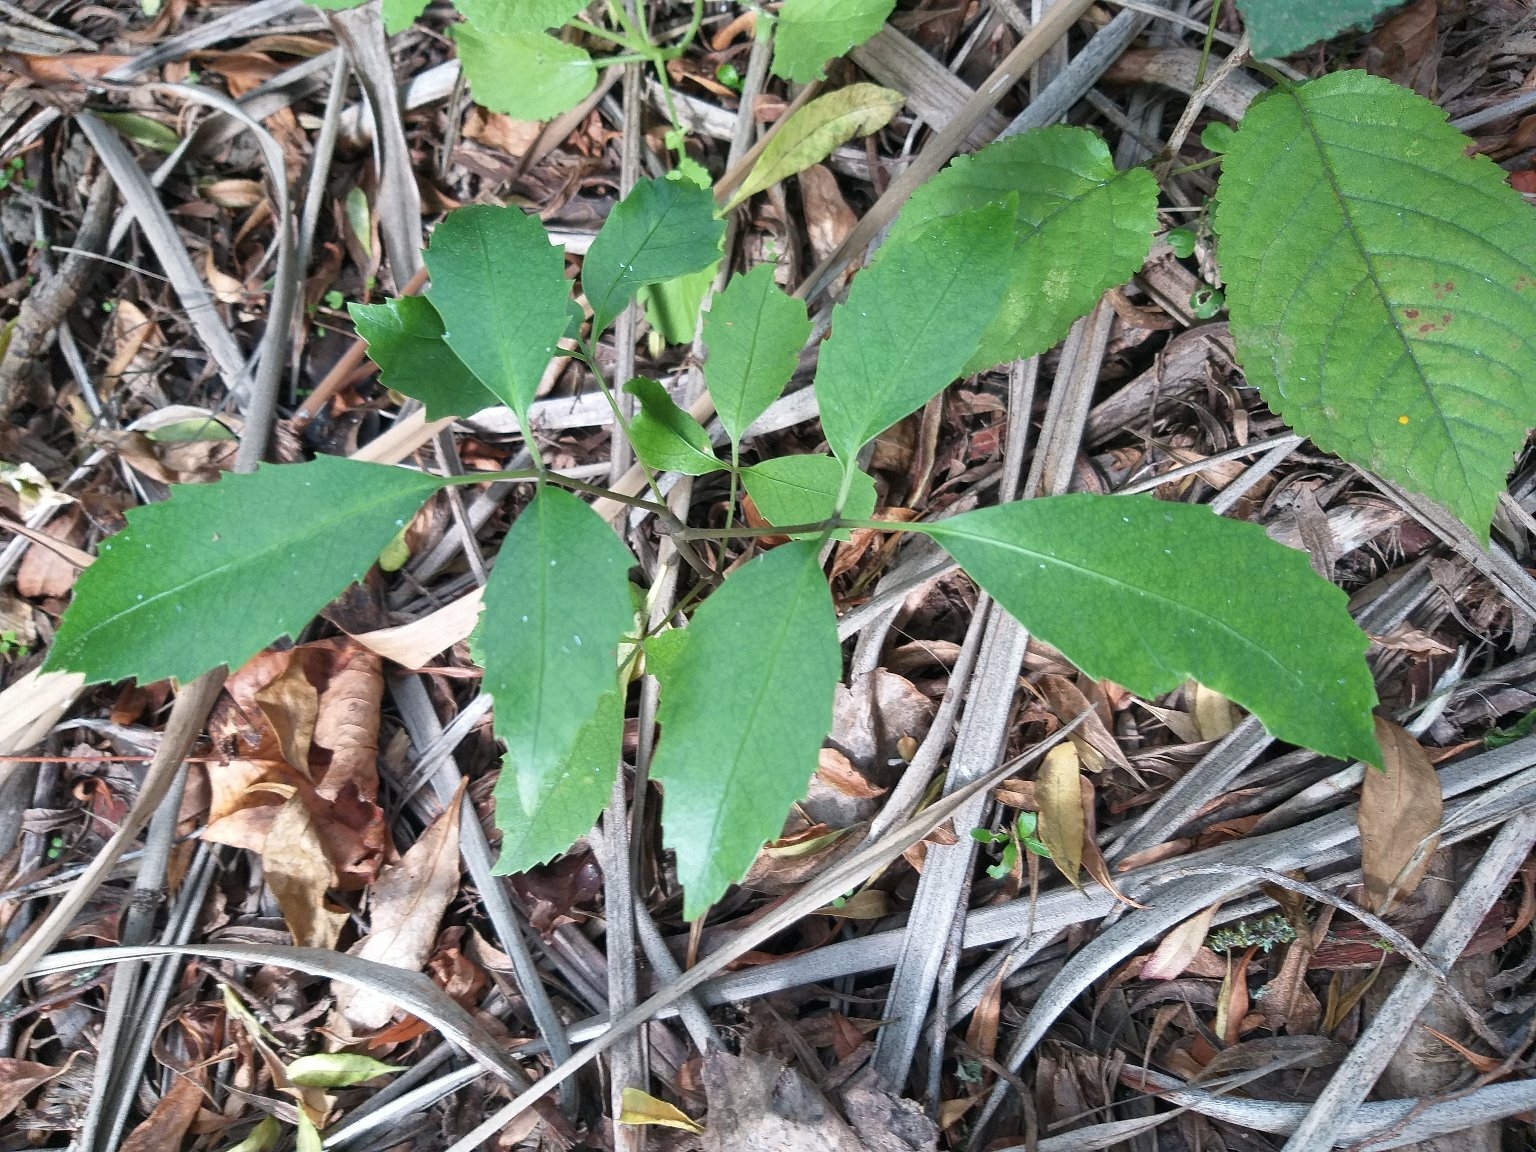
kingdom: Plantae
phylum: Tracheophyta
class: Magnoliopsida
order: Apiales
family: Araliaceae
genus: Neopanax
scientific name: Neopanax arboreus
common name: Five-fingers
